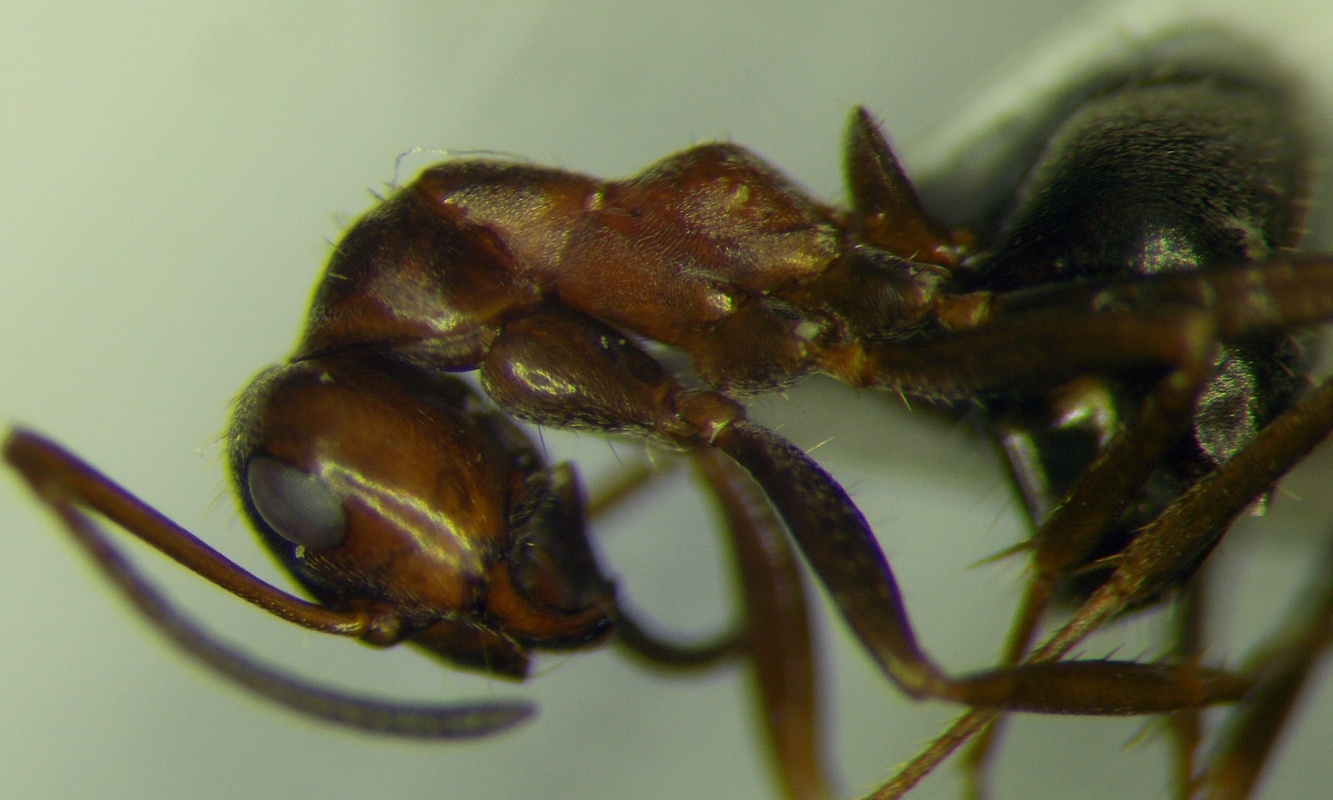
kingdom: Animalia
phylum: Arthropoda
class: Insecta
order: Hymenoptera
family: Formicidae
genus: Formica
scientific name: Formica subpilosa
